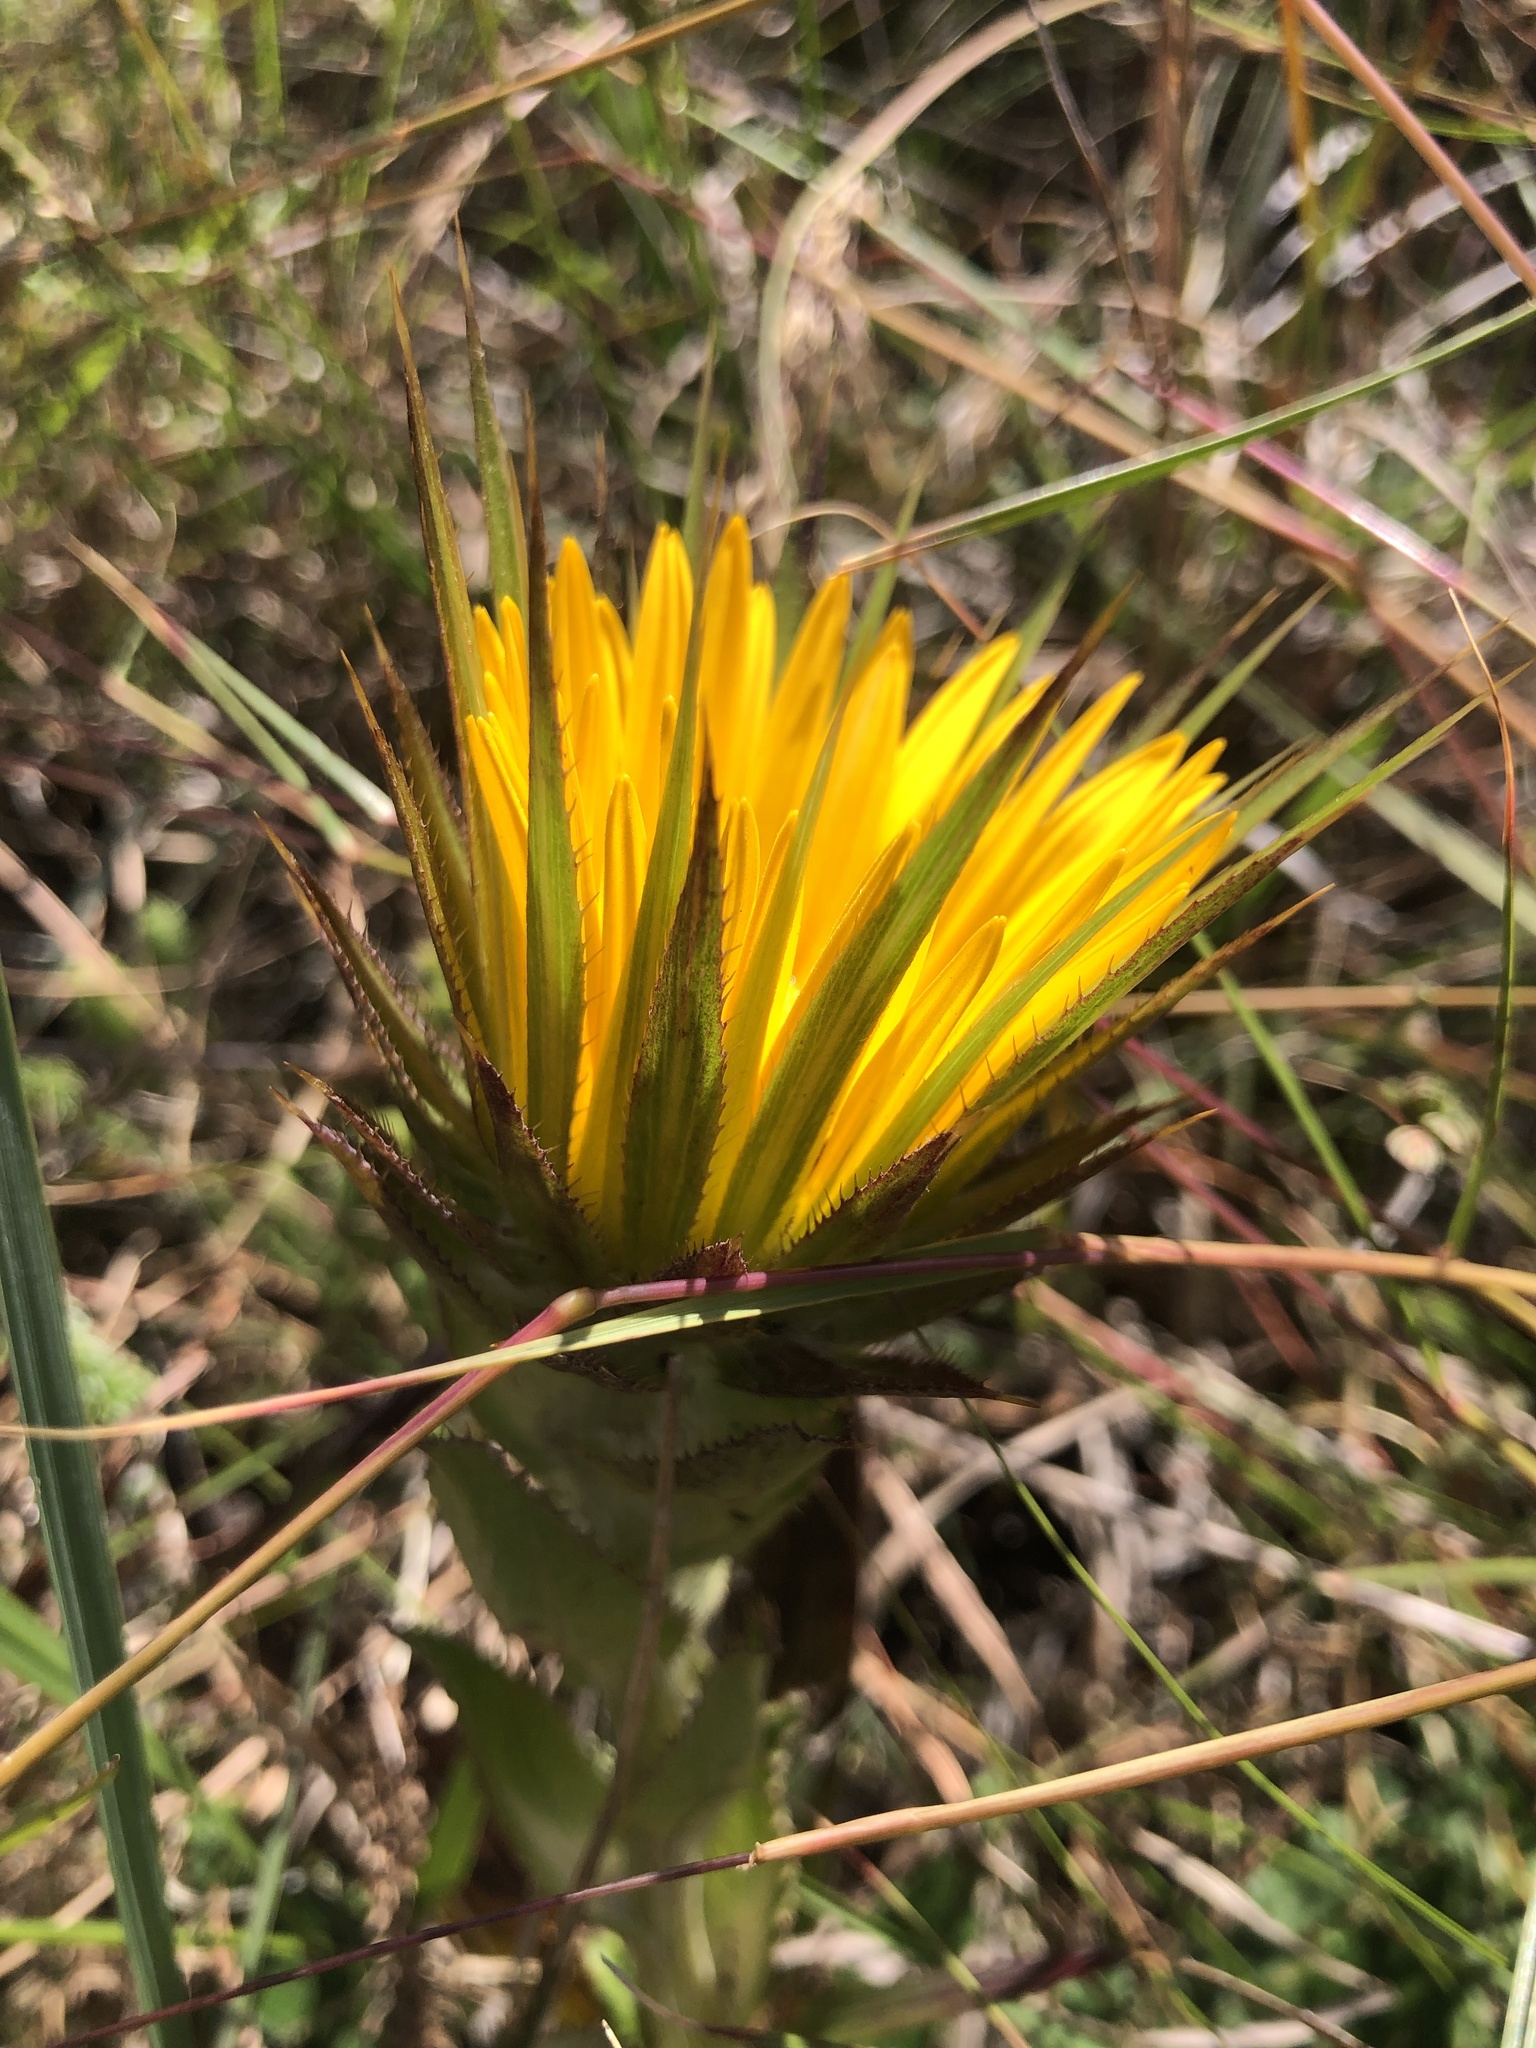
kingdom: Plantae
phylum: Tracheophyta
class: Magnoliopsida
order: Asterales
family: Asteraceae
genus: Berkheya
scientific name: Berkheya armata
